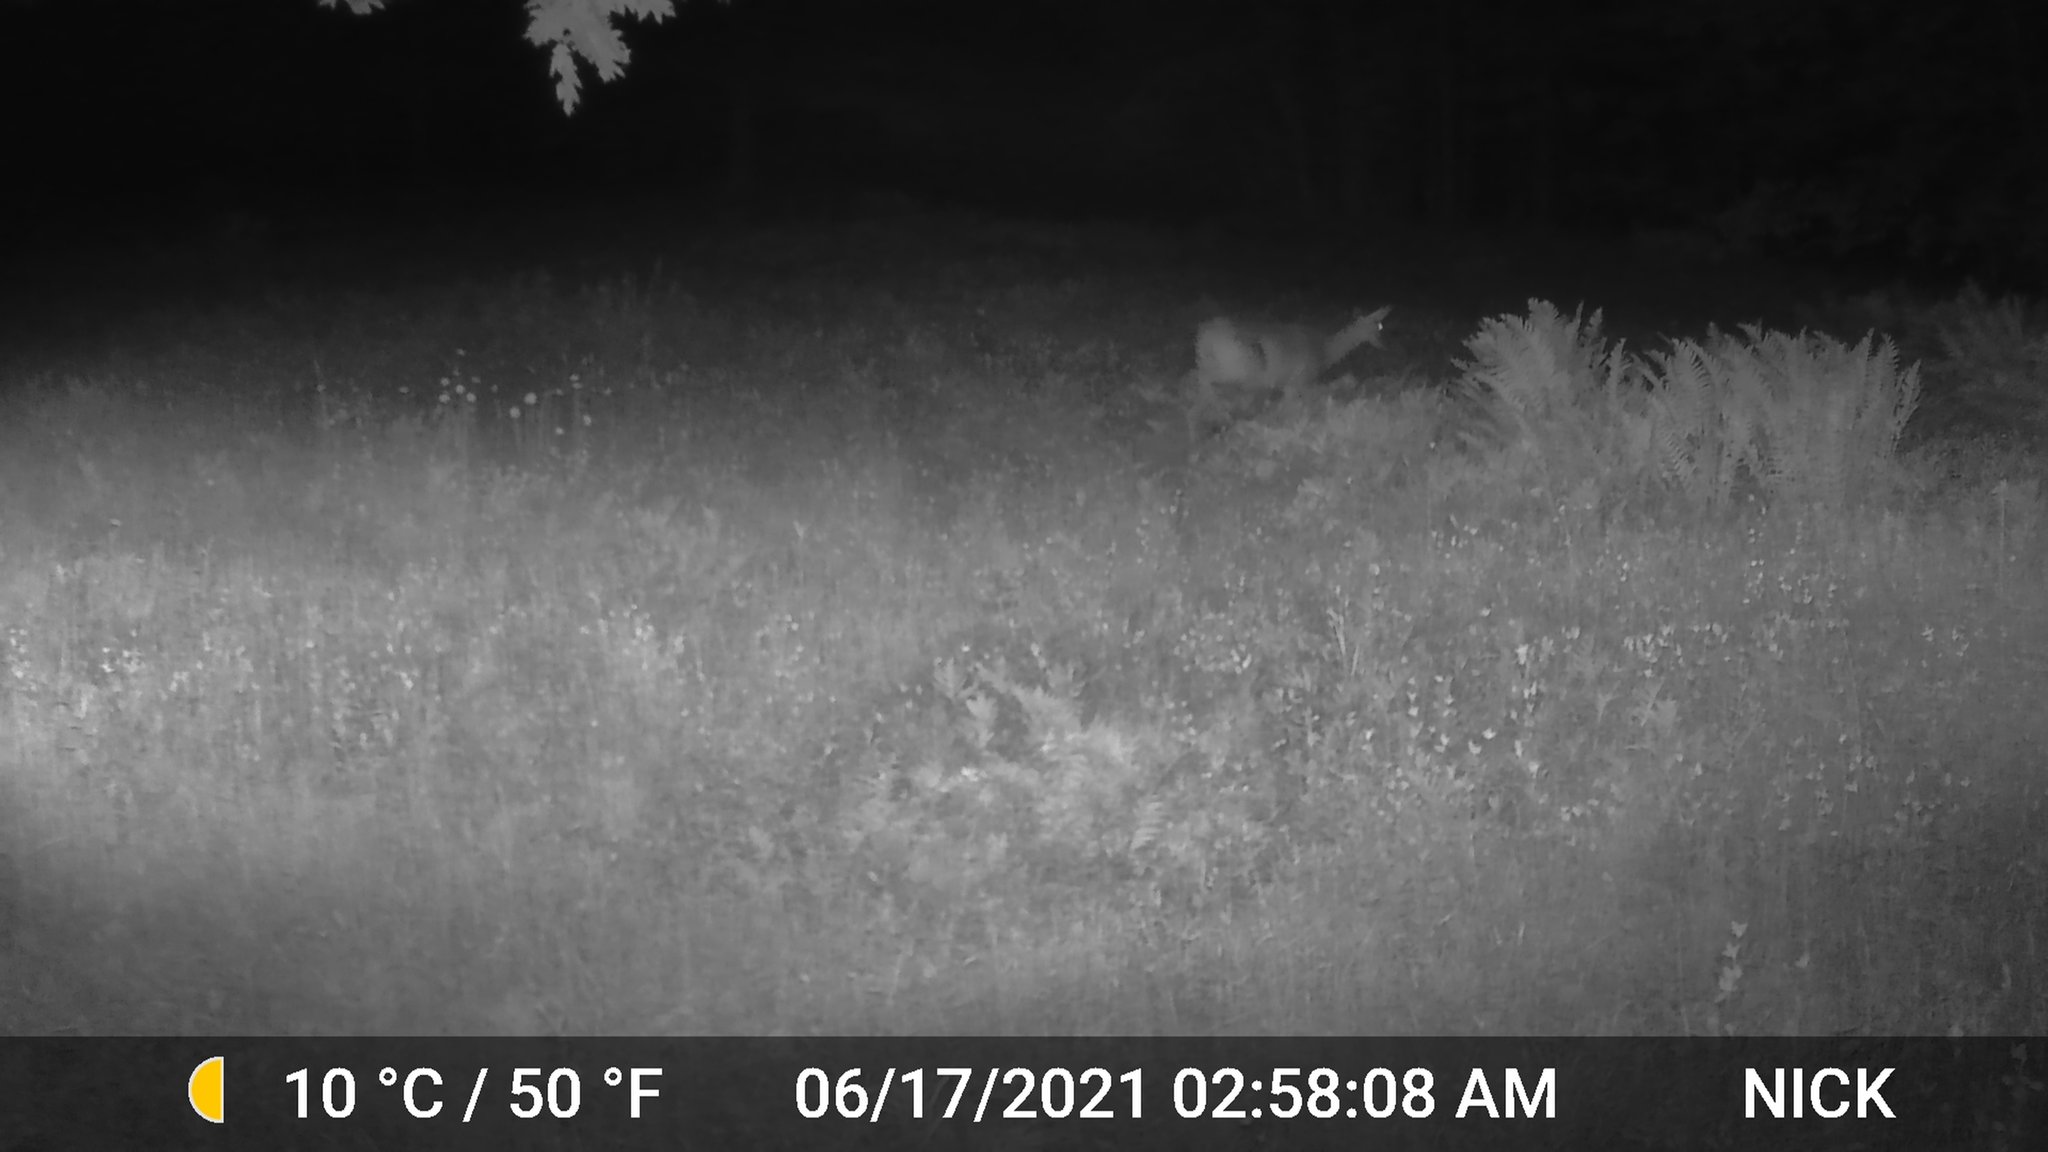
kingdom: Animalia
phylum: Chordata
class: Mammalia
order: Artiodactyla
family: Cervidae
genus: Odocoileus
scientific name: Odocoileus virginianus
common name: White-tailed deer
